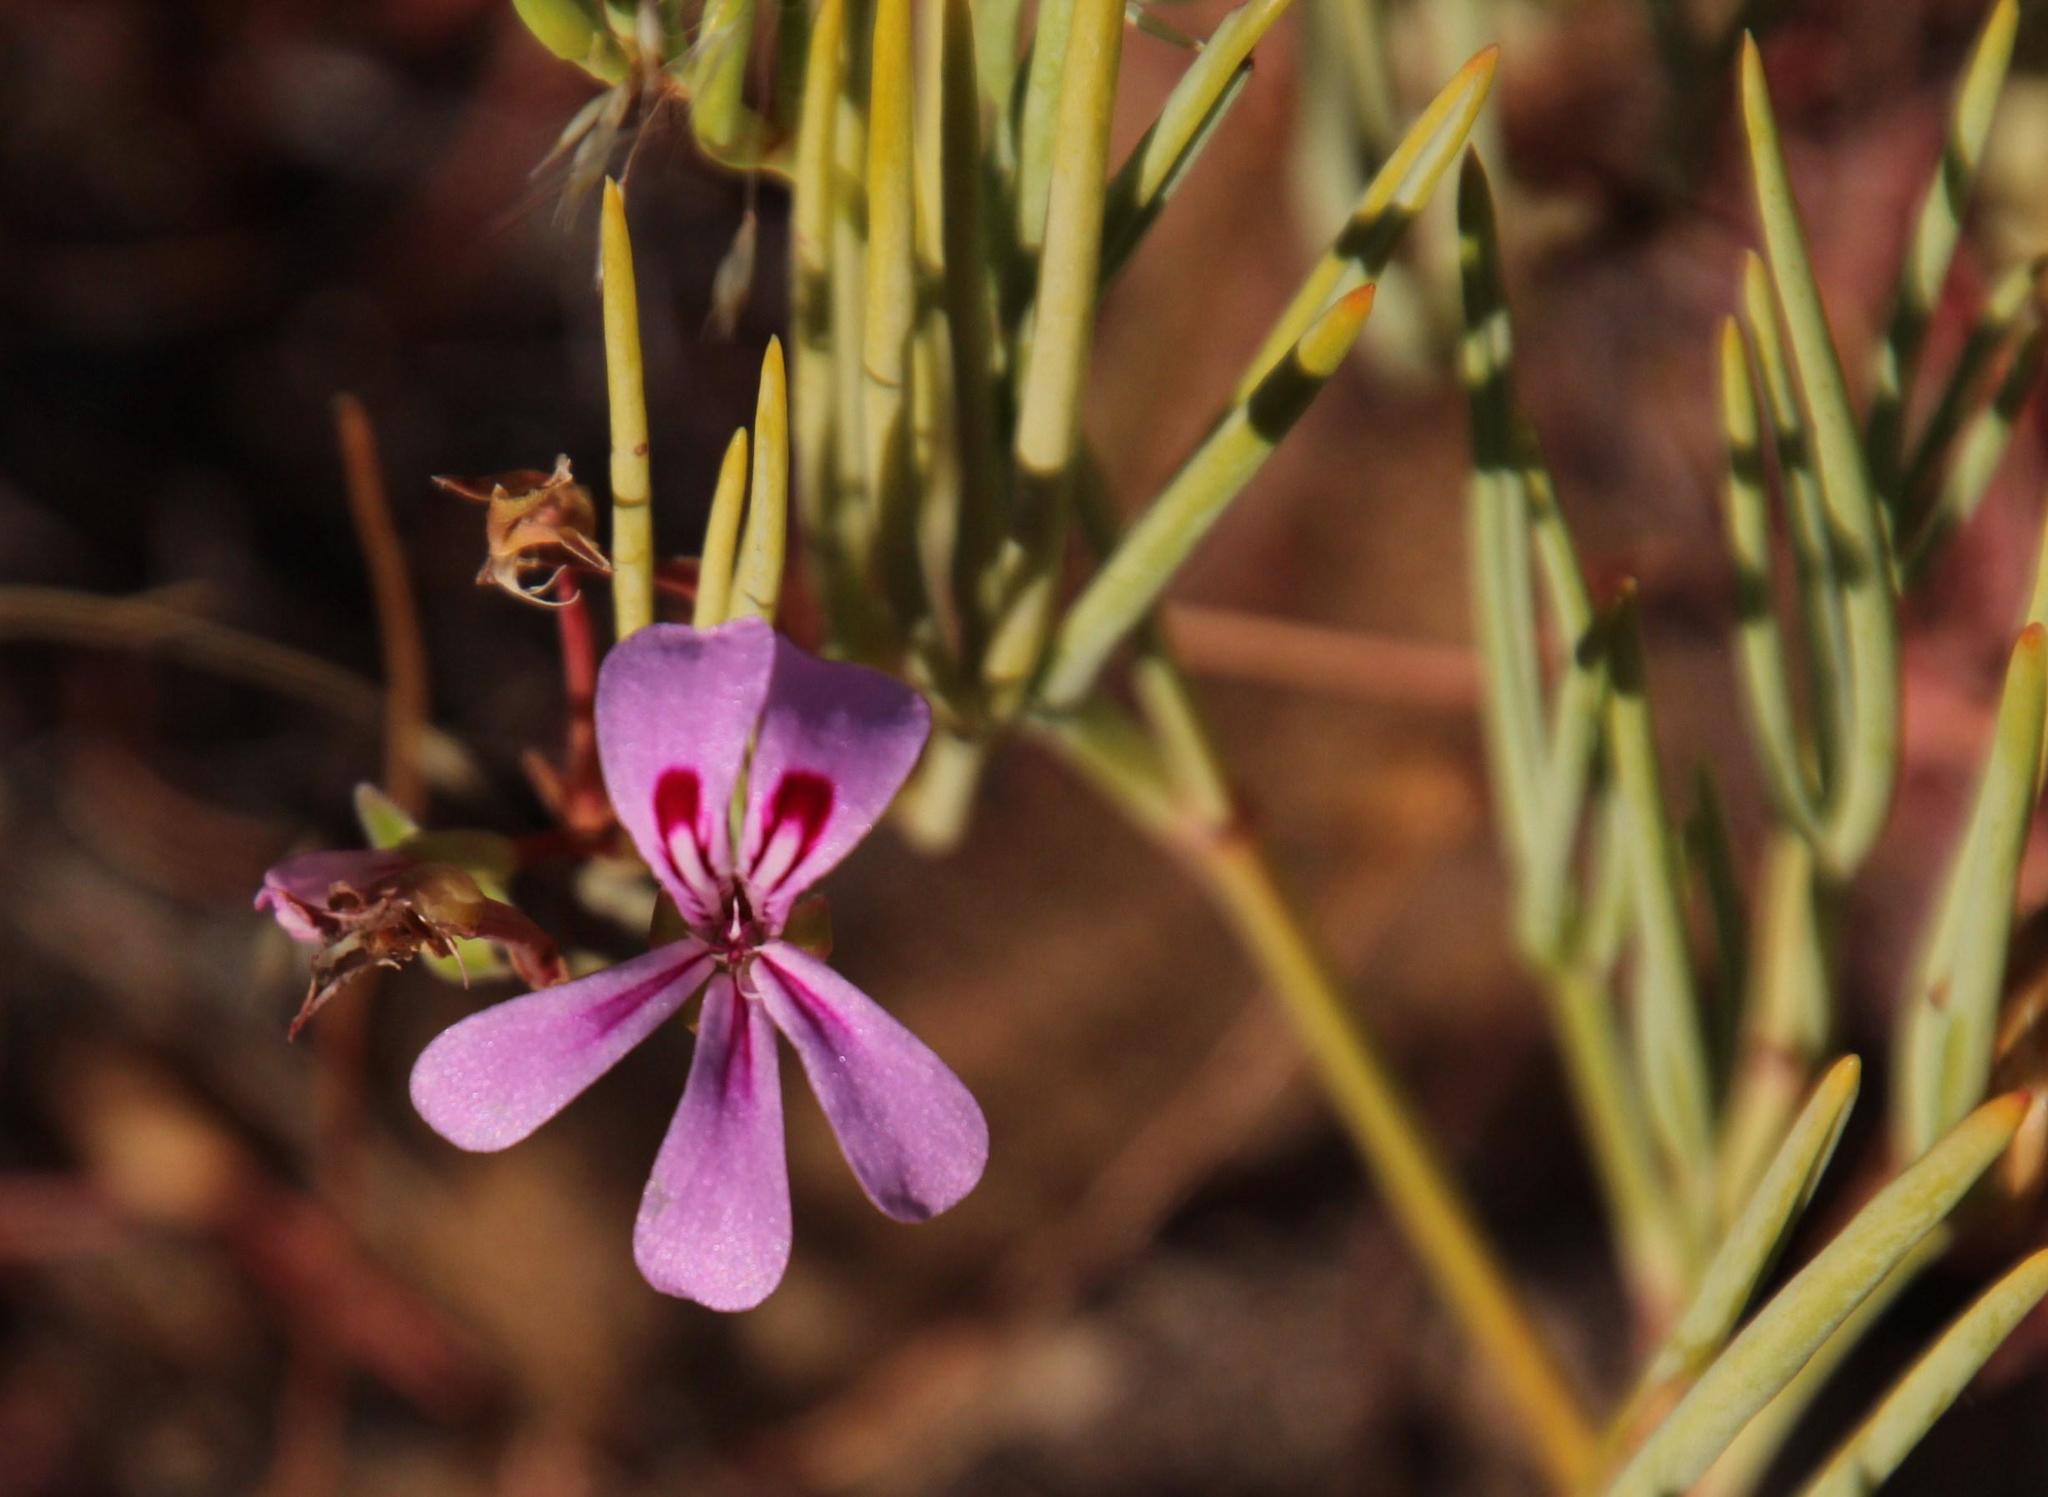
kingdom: Plantae
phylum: Tracheophyta
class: Magnoliopsida
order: Geraniales
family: Geraniaceae
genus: Pelargonium
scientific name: Pelargonium laevigatum
